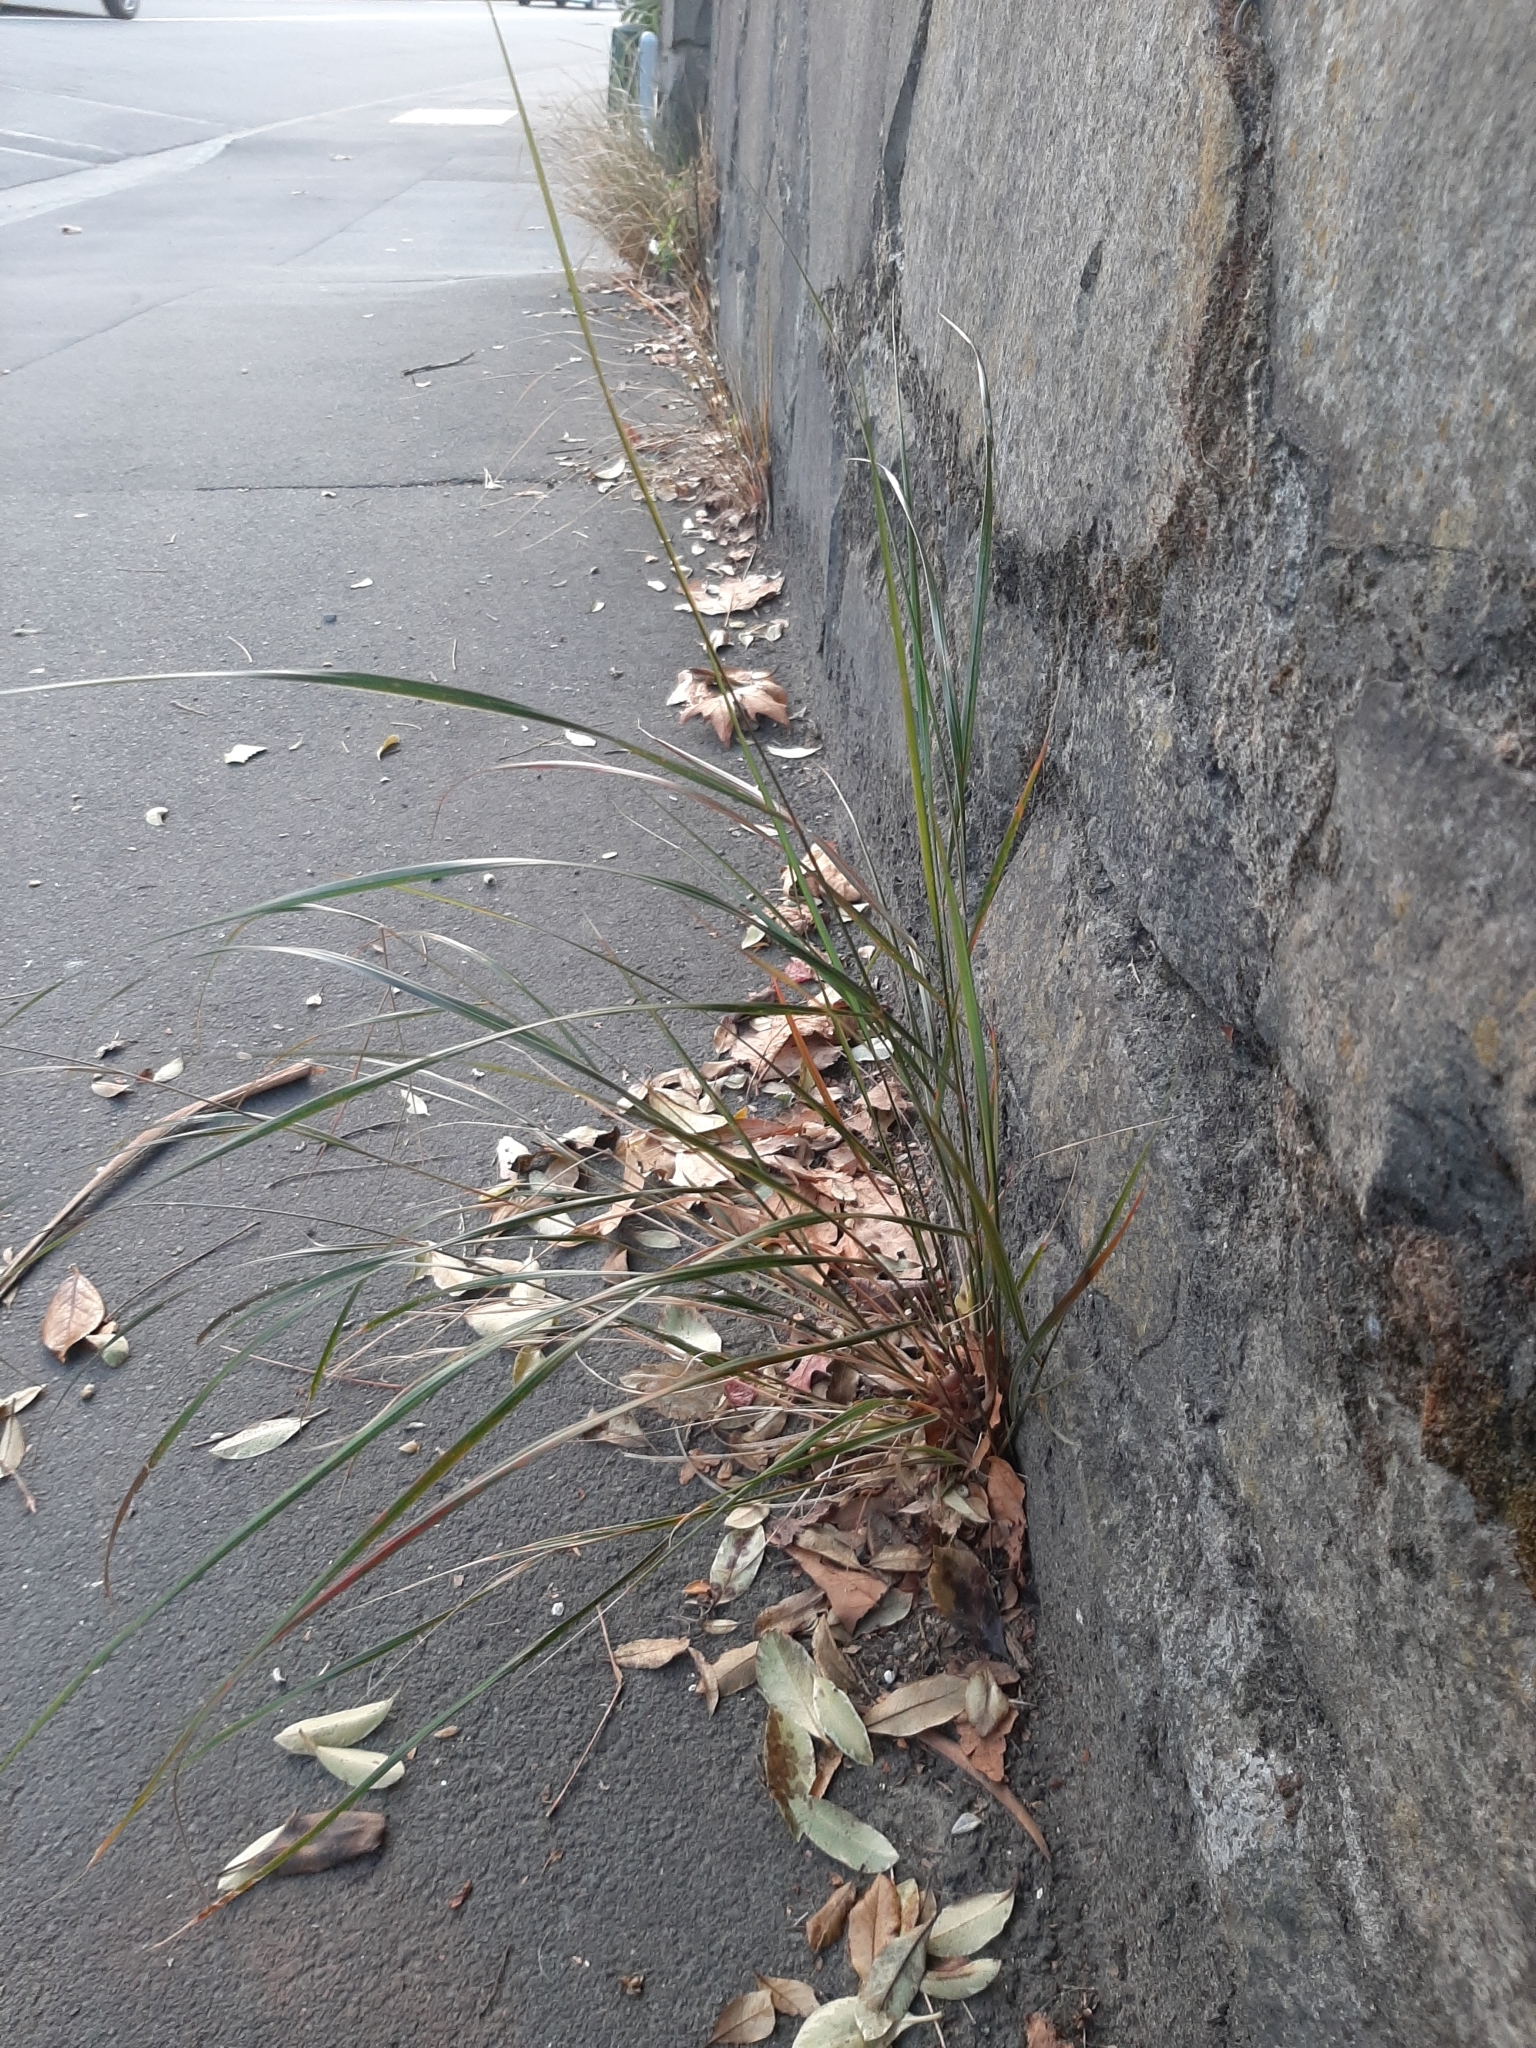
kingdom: Plantae
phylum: Tracheophyta
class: Liliopsida
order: Poales
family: Poaceae
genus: Anemanthele
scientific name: Anemanthele lessoniana
